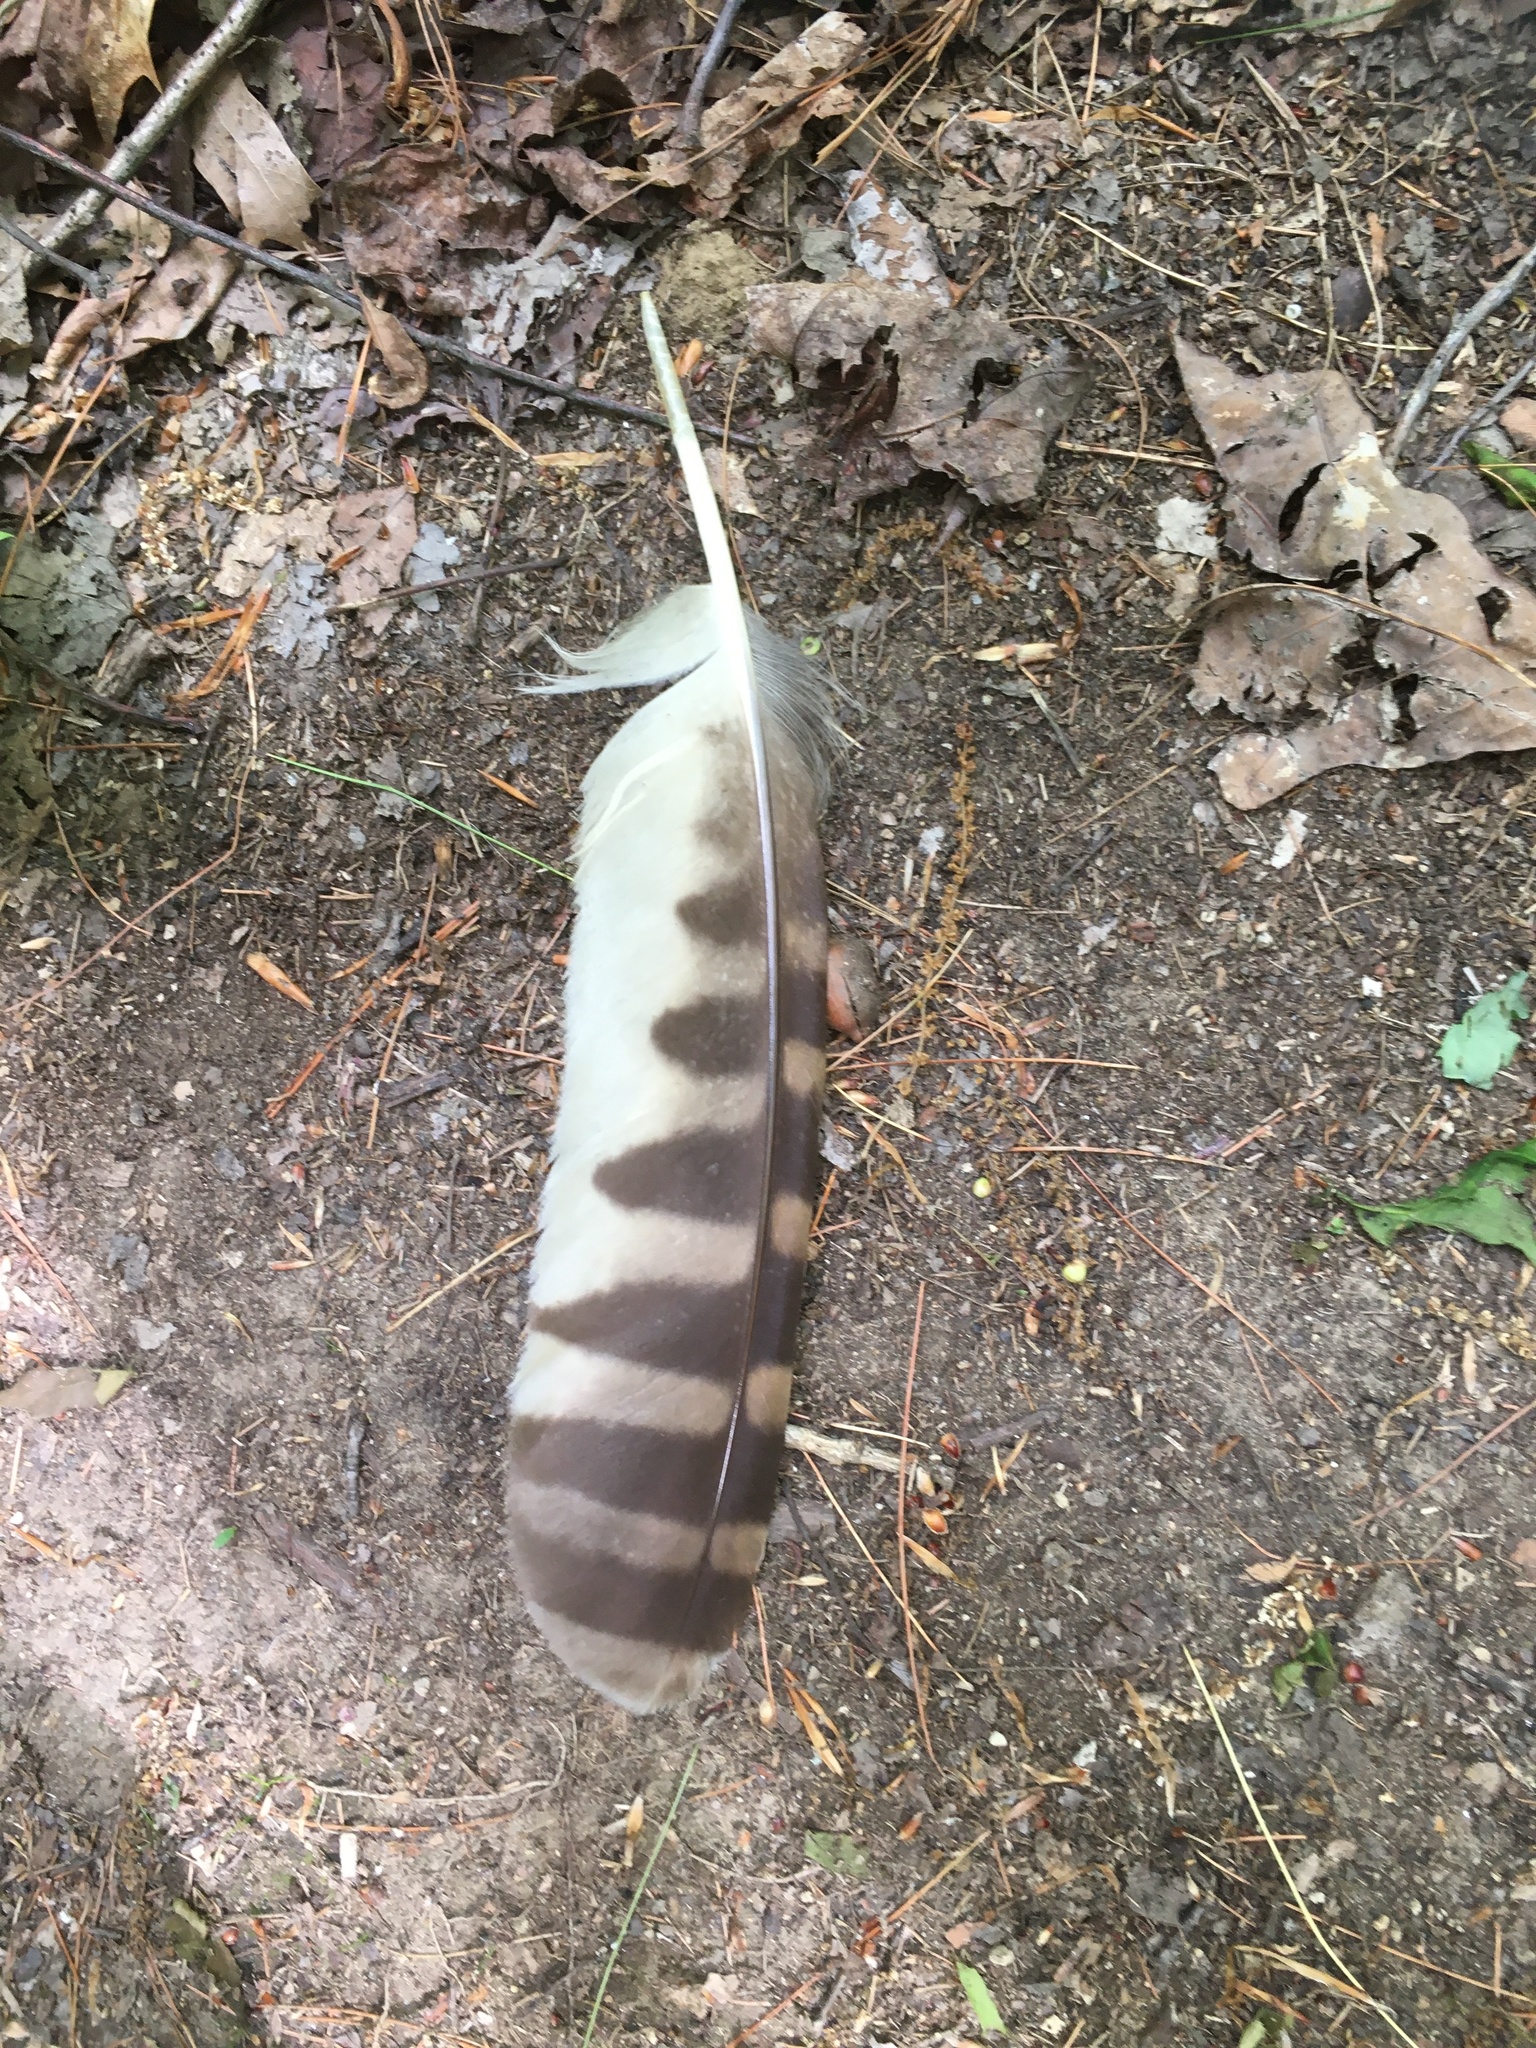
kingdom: Animalia
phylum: Chordata
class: Aves
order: Strigiformes
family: Strigidae
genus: Strix
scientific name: Strix varia
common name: Barred owl
